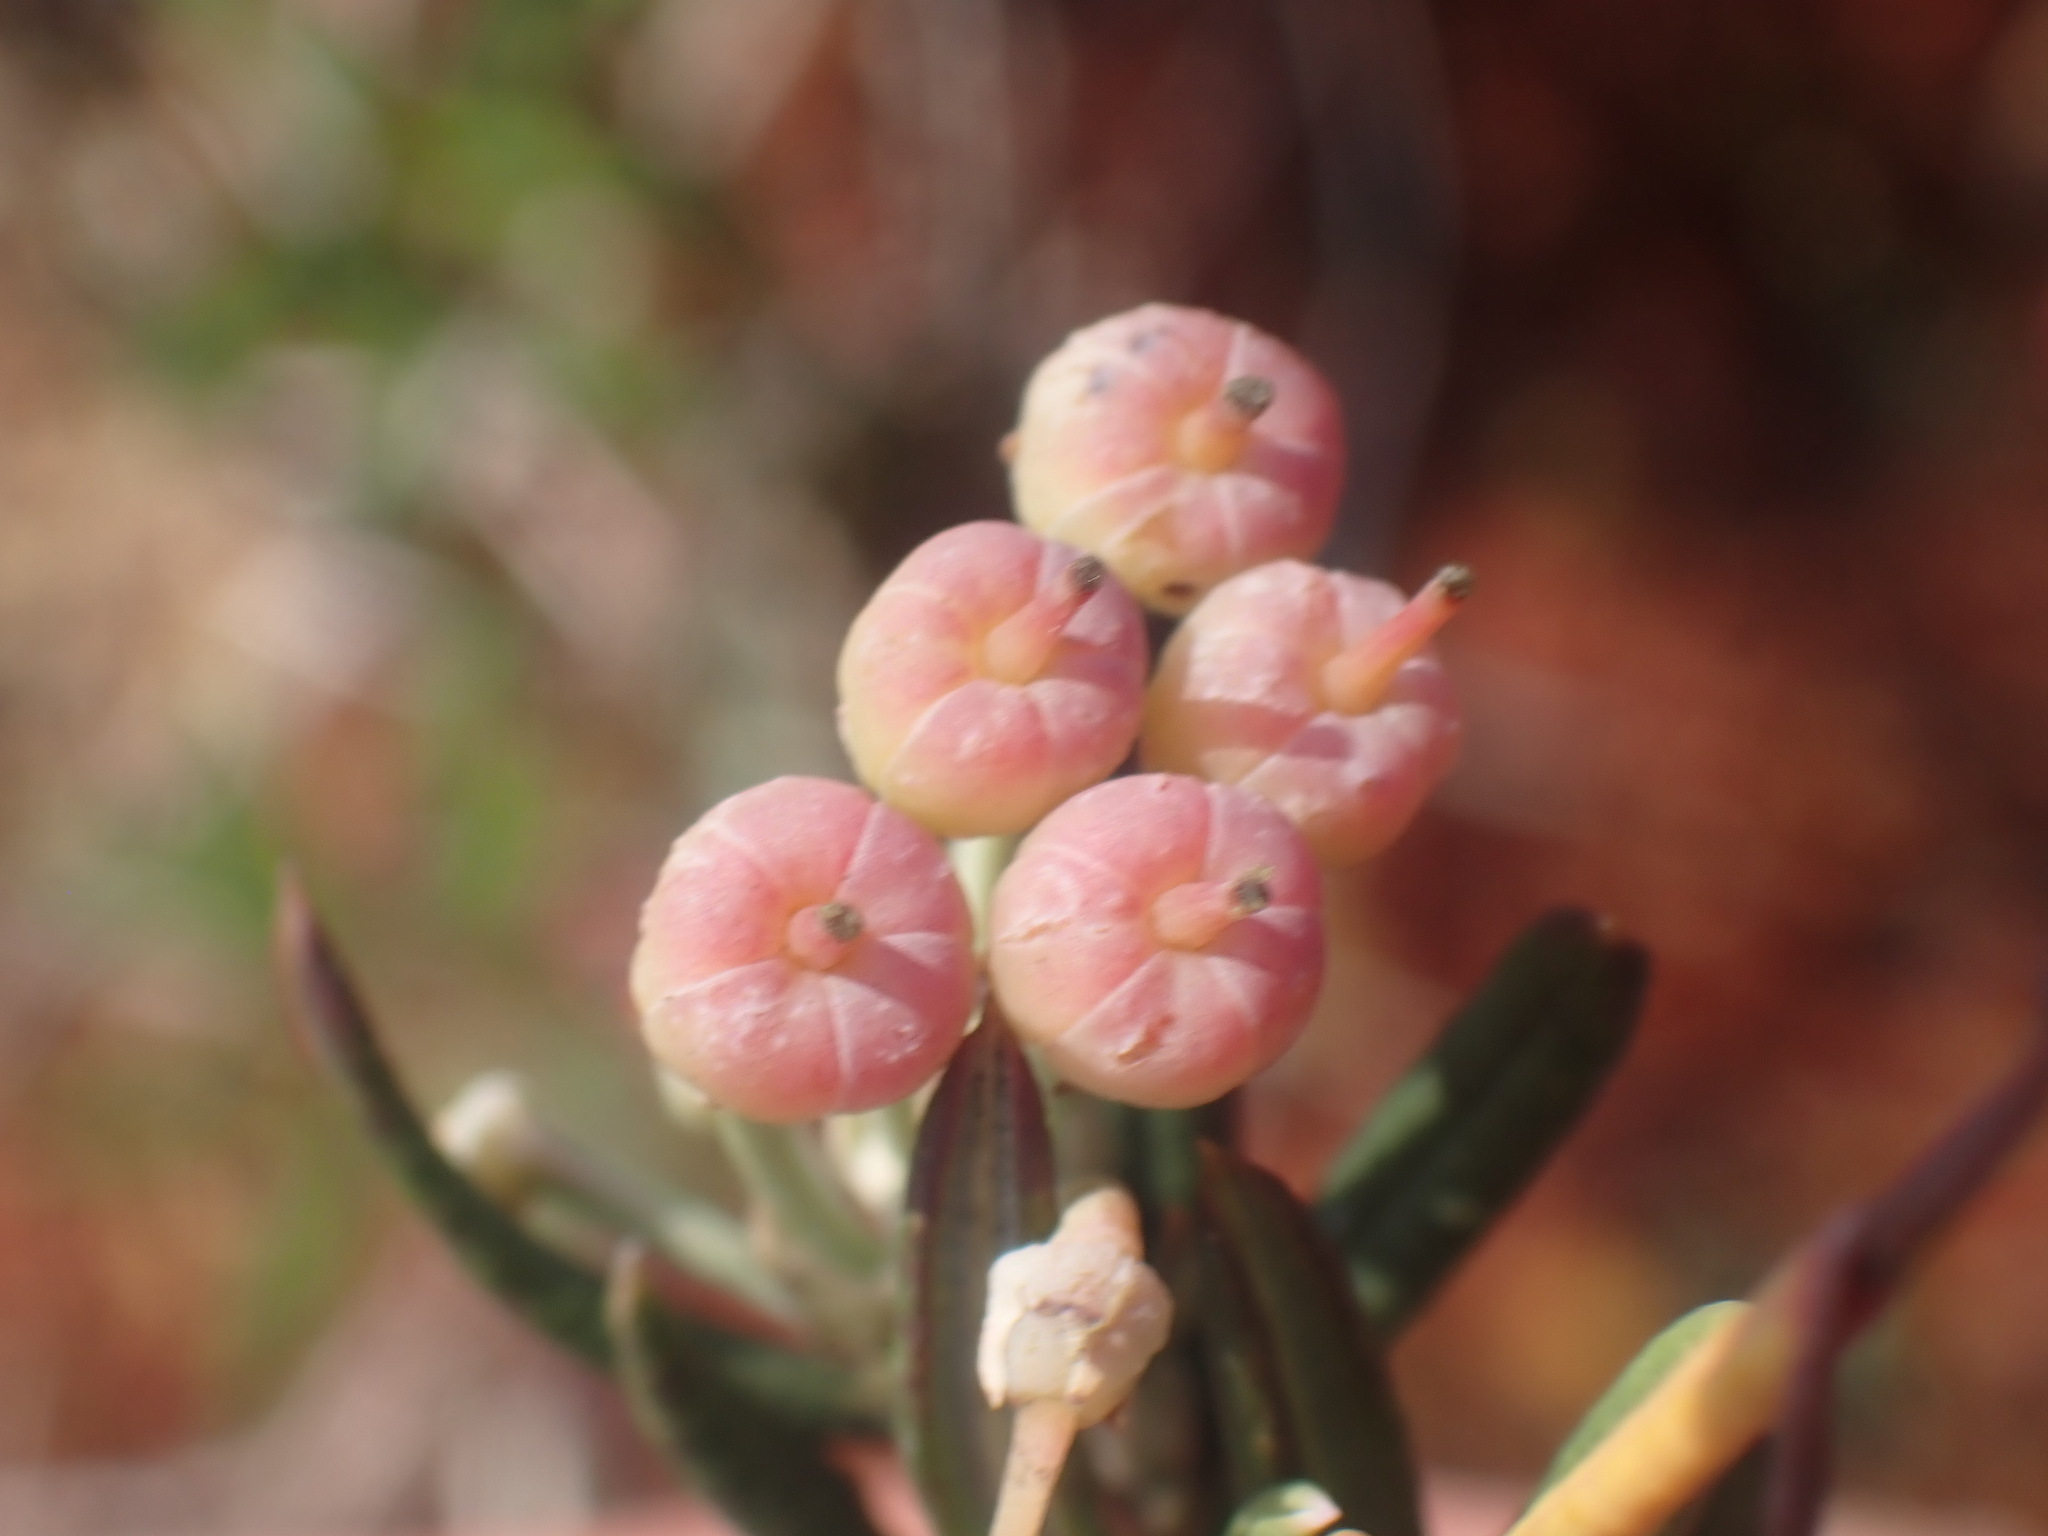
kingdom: Plantae
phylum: Tracheophyta
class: Magnoliopsida
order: Ericales
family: Ericaceae
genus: Andromeda
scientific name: Andromeda polifolia
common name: Bog-rosemary
